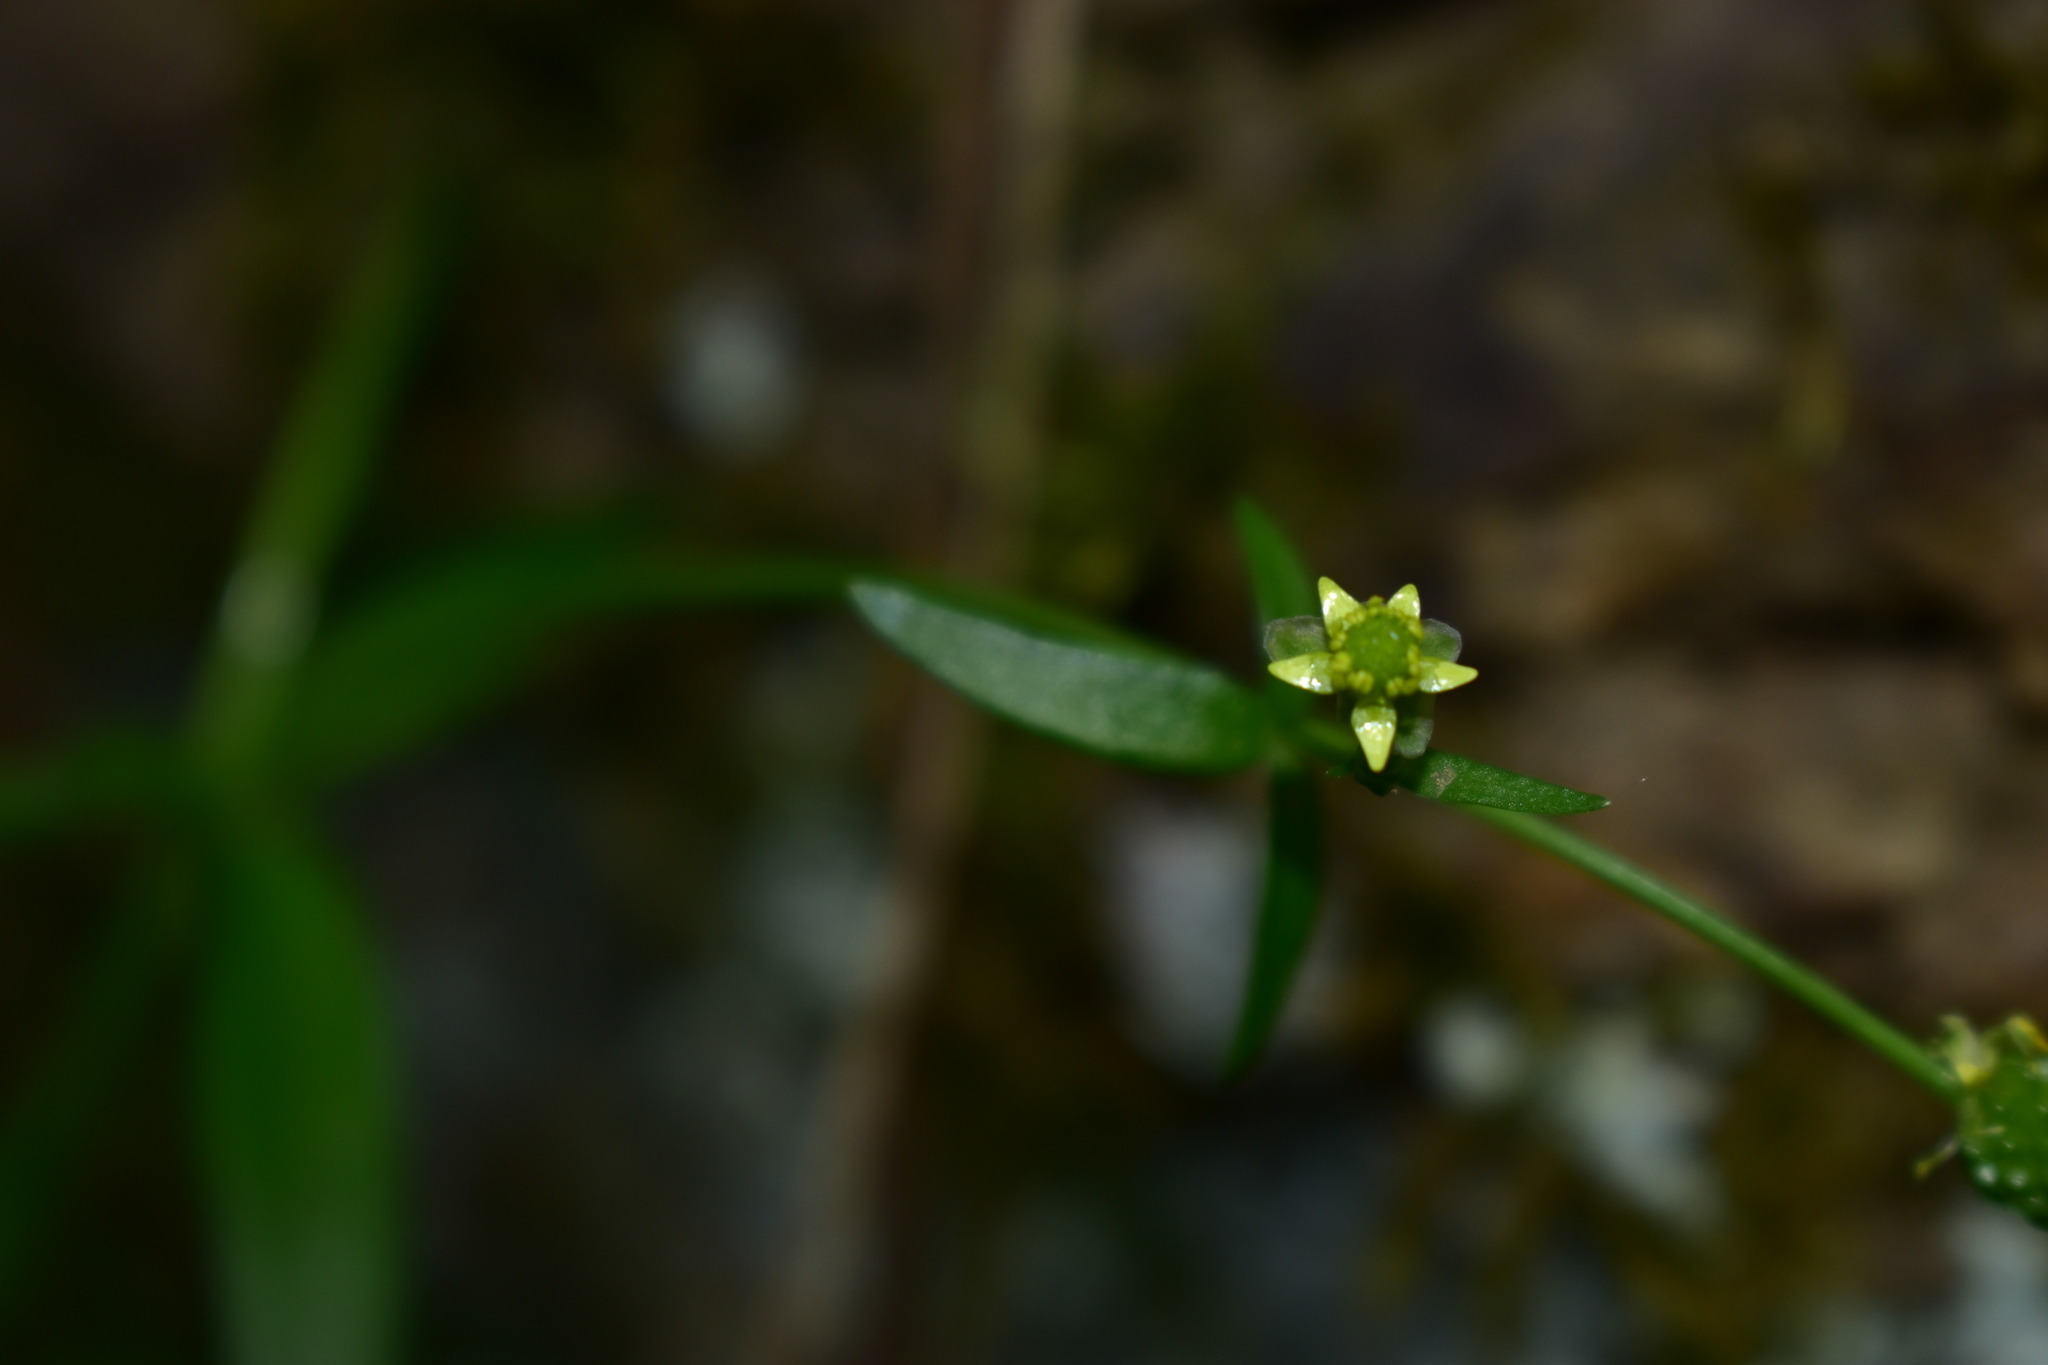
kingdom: Plantae
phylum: Tracheophyta
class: Magnoliopsida
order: Ranunculales
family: Ranunculaceae
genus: Ranunculus
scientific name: Ranunculus abortivus
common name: Early wood buttercup
